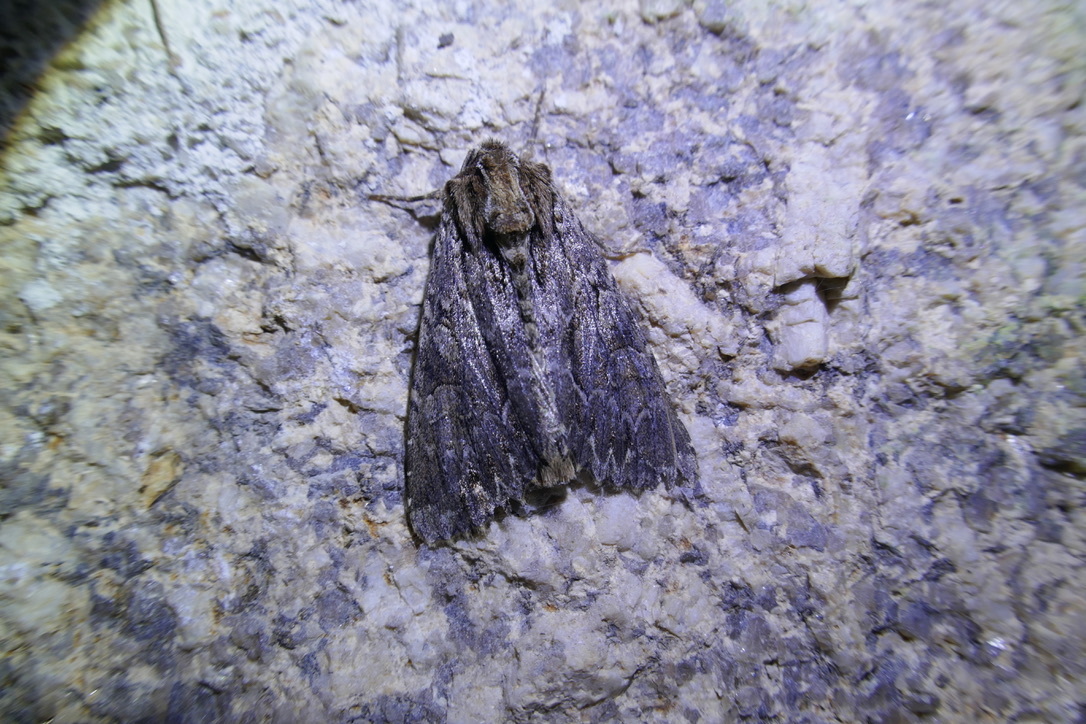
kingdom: Animalia
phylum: Arthropoda
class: Insecta
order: Lepidoptera
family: Noctuidae
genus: Apamea
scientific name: Apamea monoglypha
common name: Dark arches
